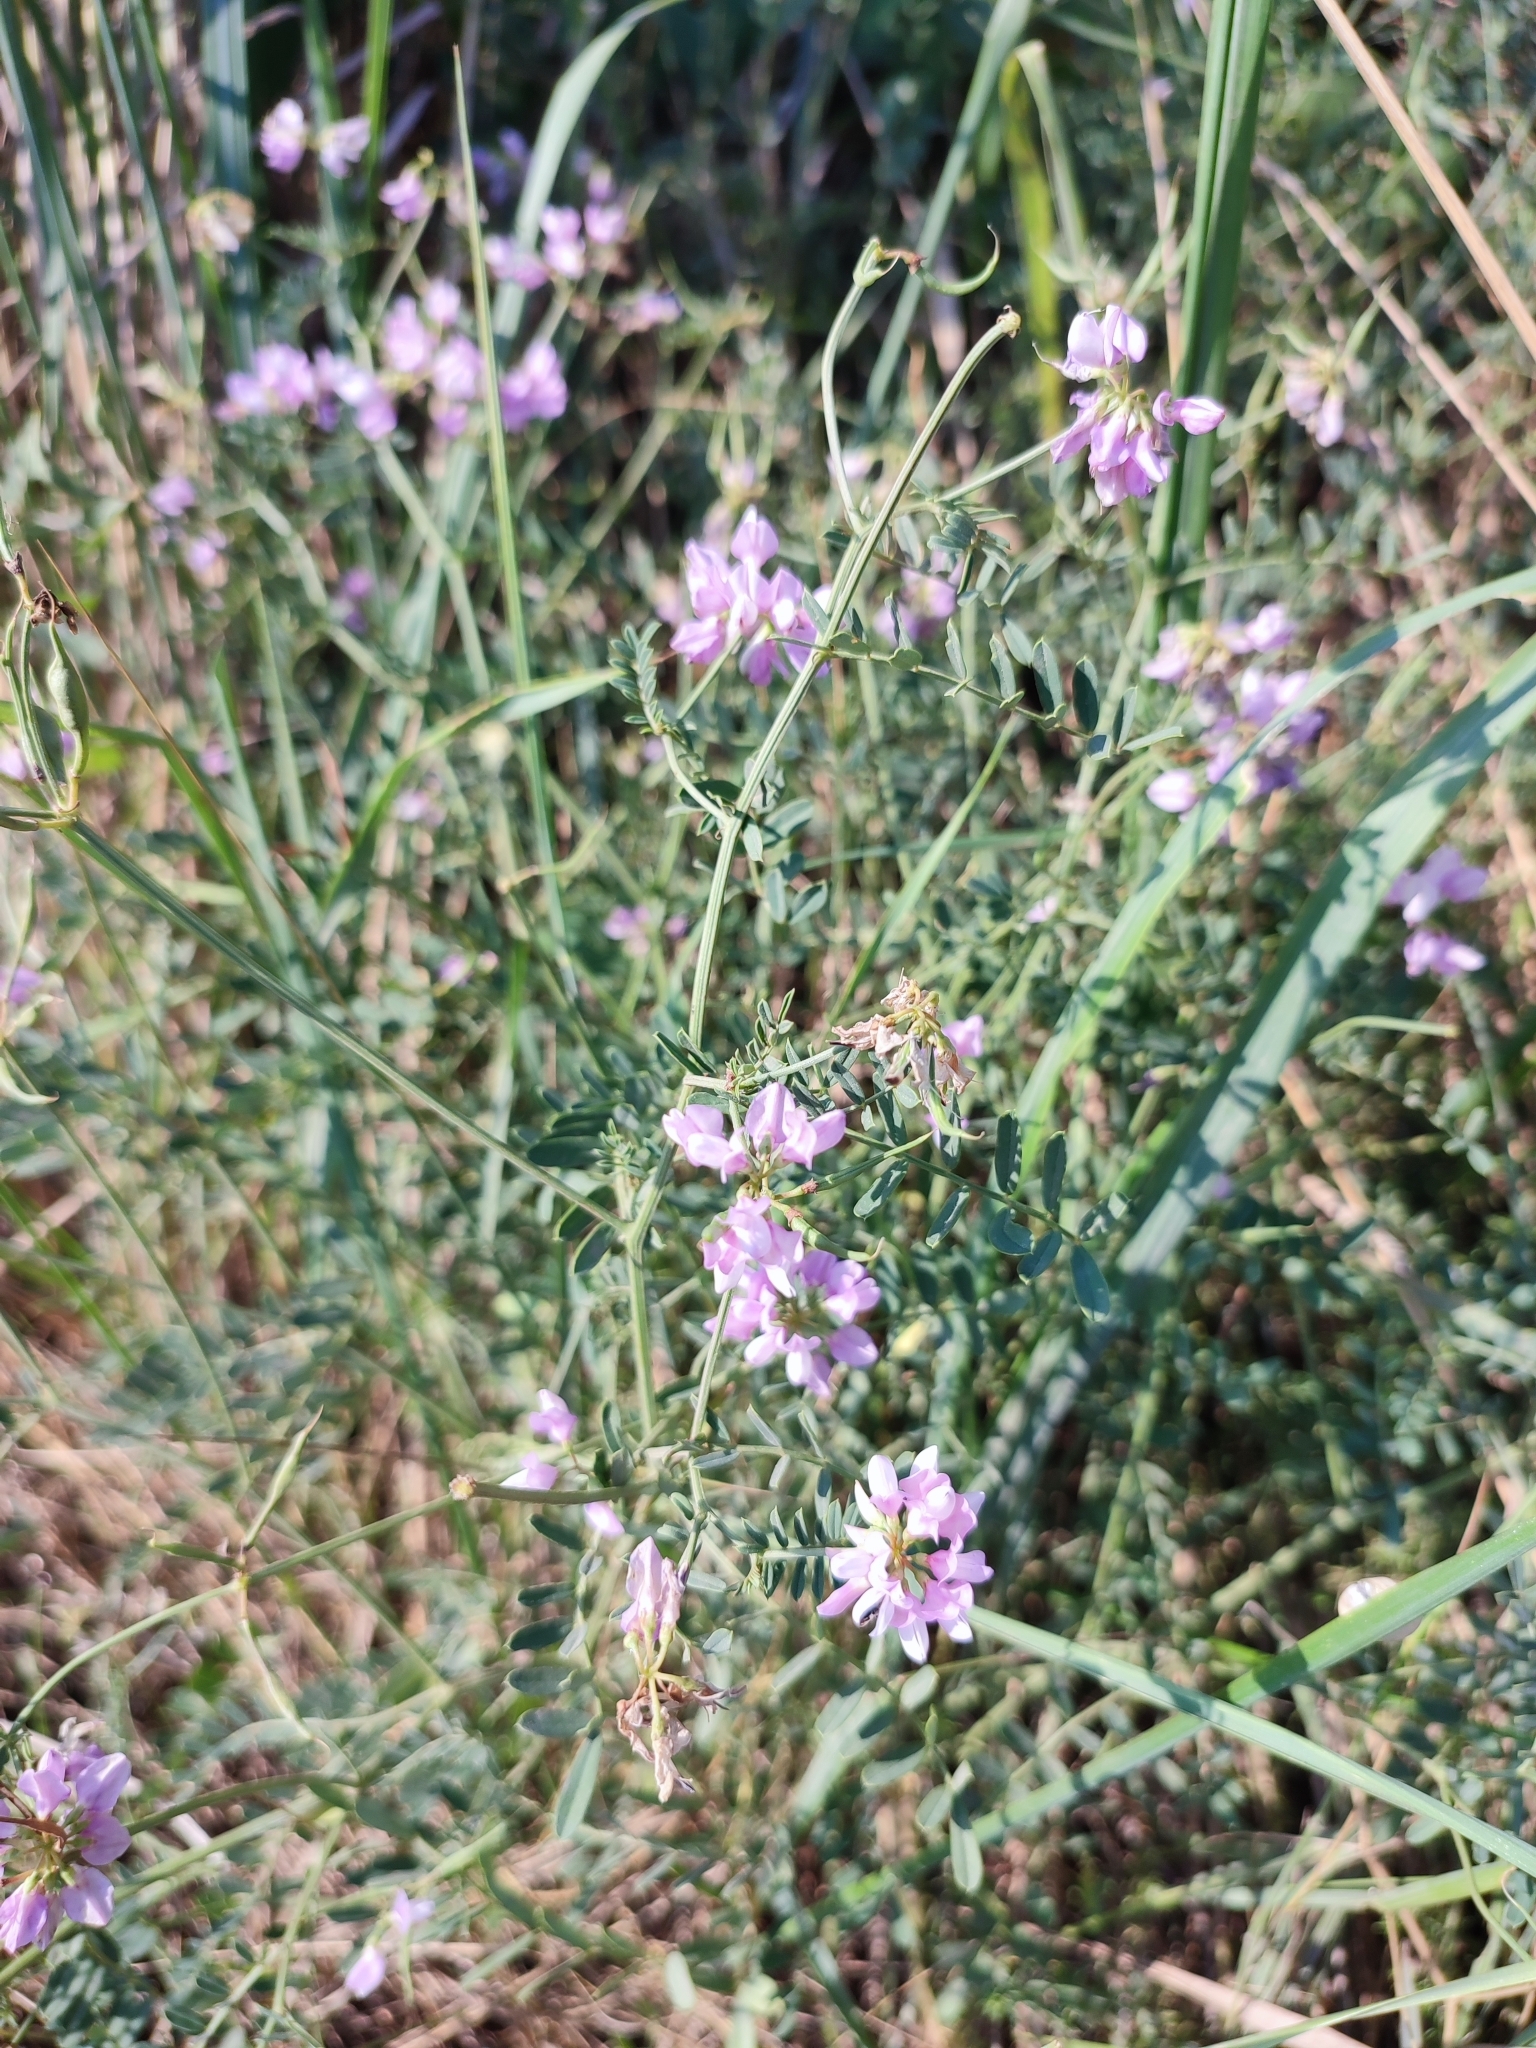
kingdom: Plantae
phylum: Tracheophyta
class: Magnoliopsida
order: Fabales
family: Fabaceae
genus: Coronilla
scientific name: Coronilla varia
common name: Crownvetch
